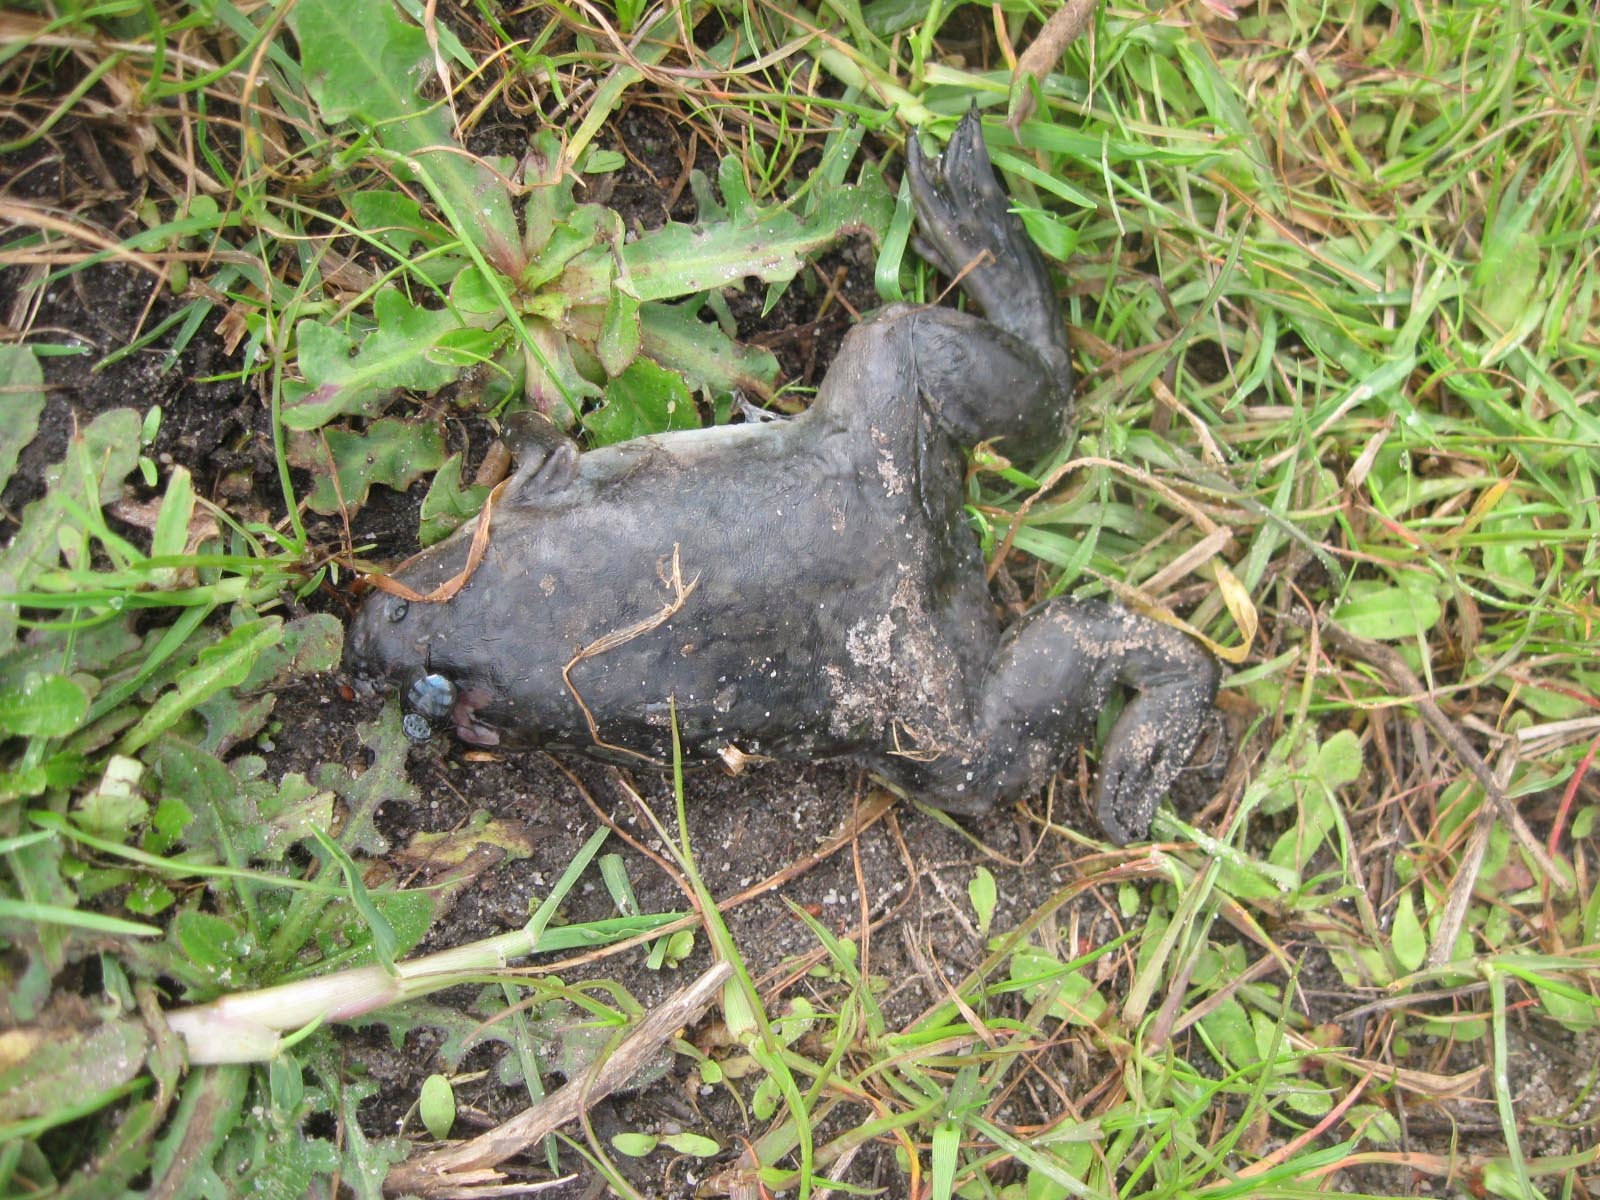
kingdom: Animalia
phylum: Chordata
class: Amphibia
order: Anura
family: Pipidae
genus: Xenopus
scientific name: Xenopus laevis
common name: African clawed frog
